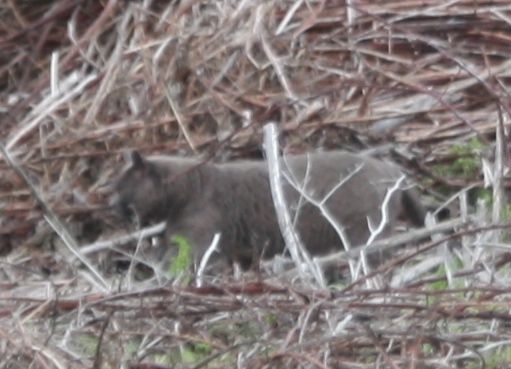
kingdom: Animalia
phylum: Chordata
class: Mammalia
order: Carnivora
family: Felidae
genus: Felis
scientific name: Felis catus
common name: Domestic cat
